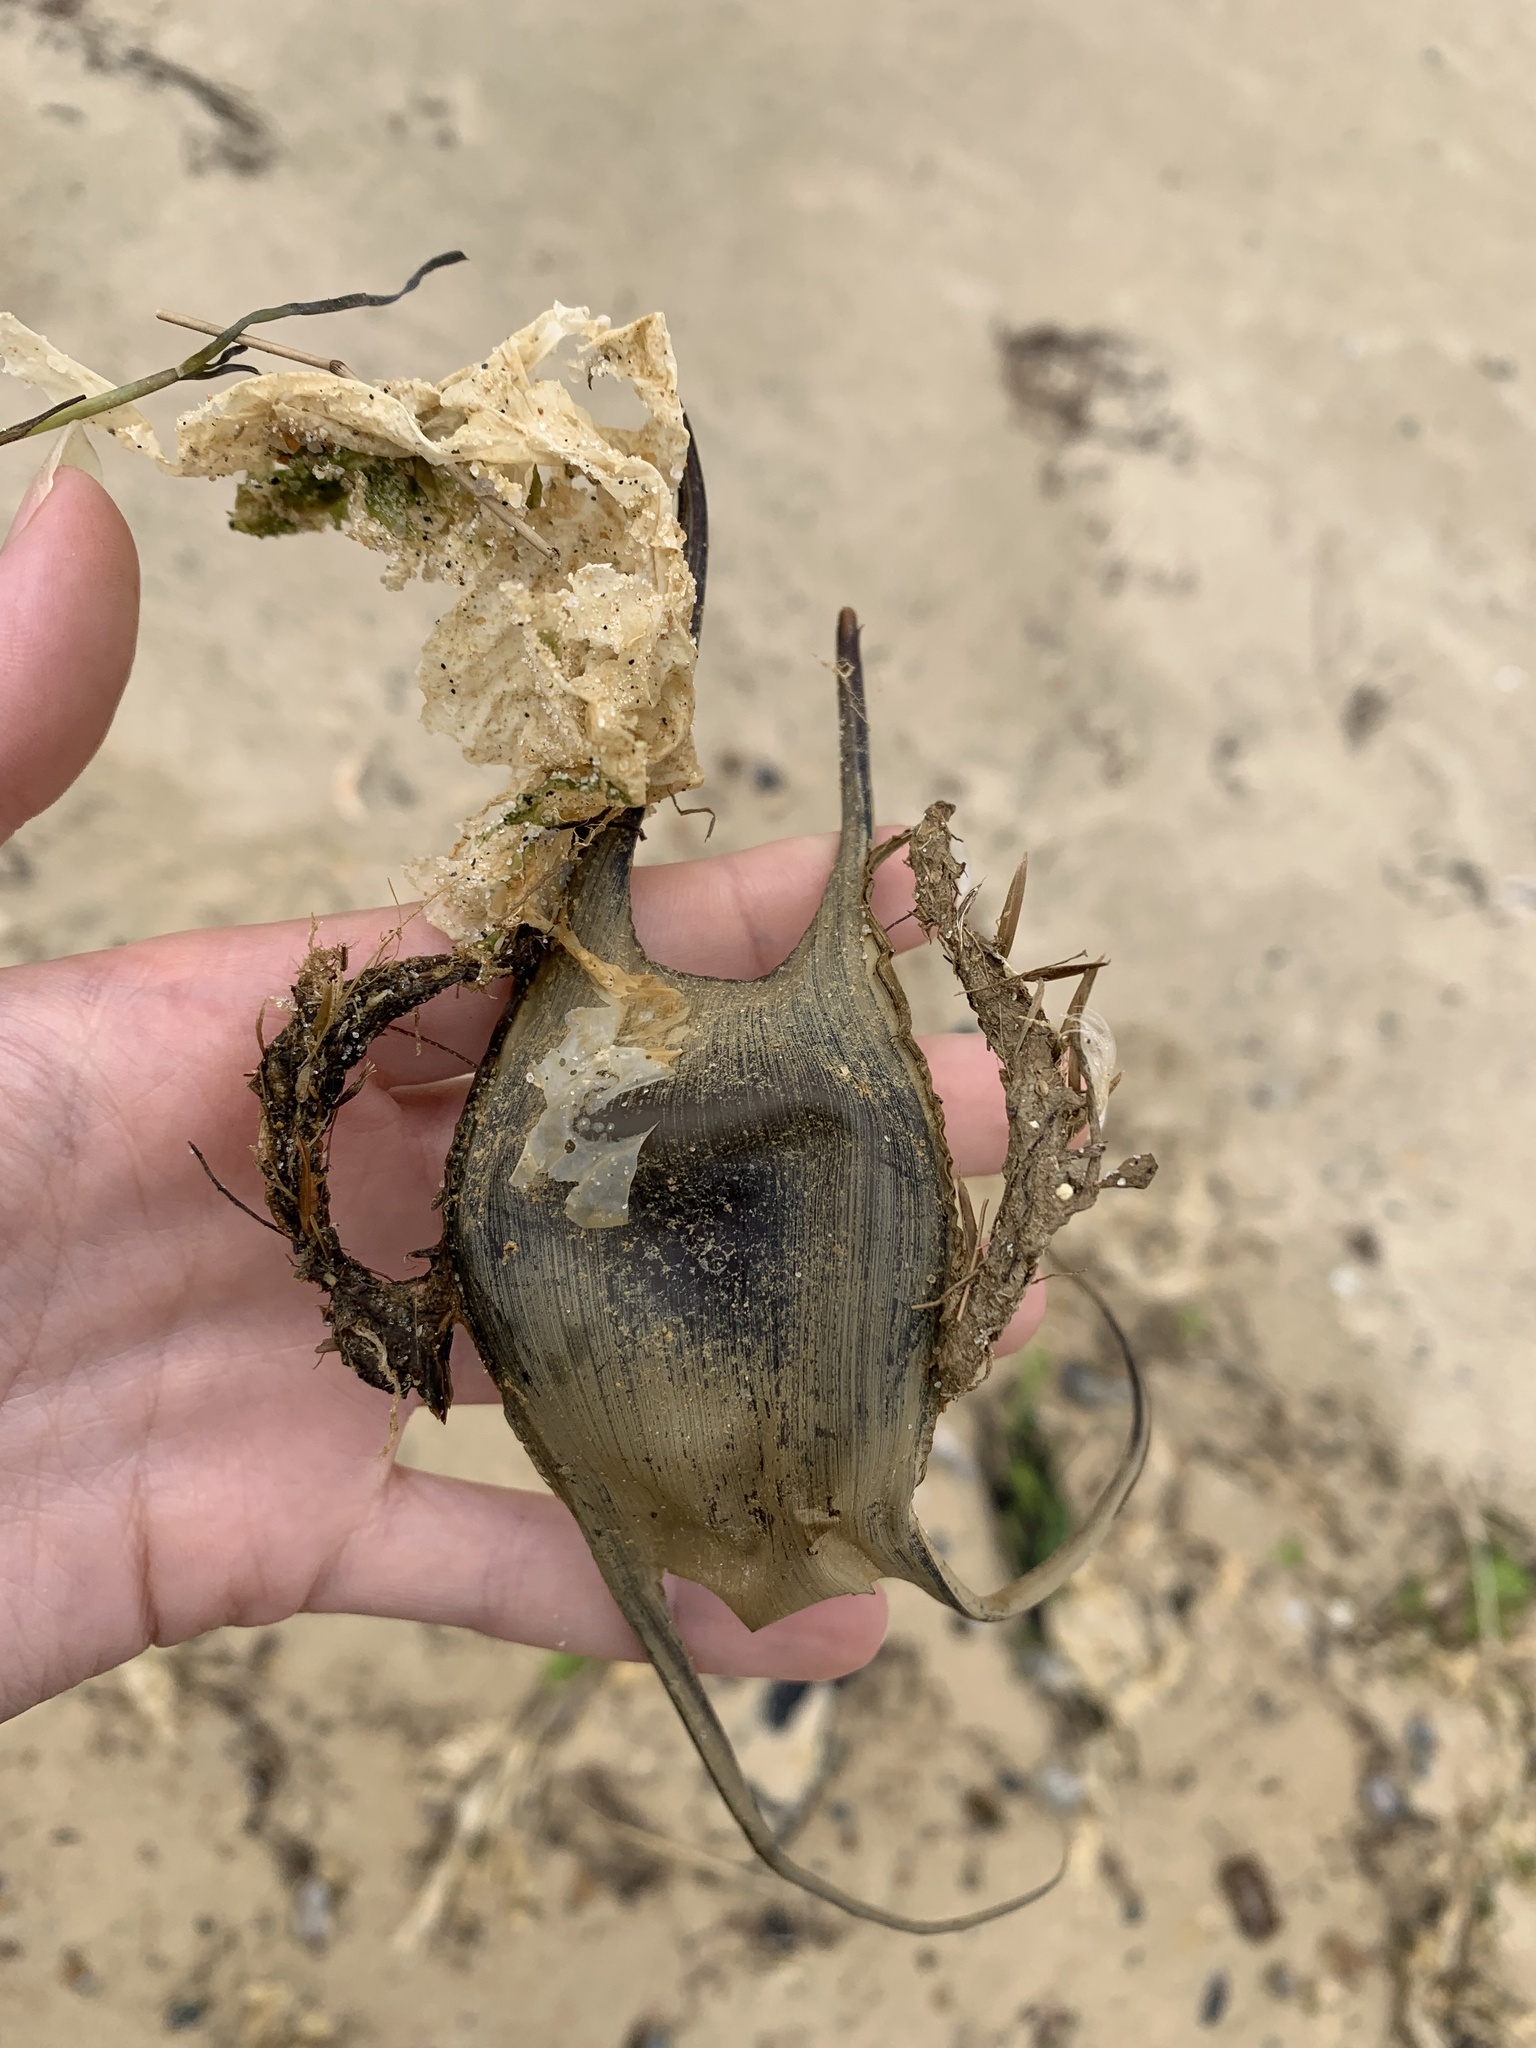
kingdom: Animalia
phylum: Chordata
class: Elasmobranchii
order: Rajiformes
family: Rajidae
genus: Leucoraja
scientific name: Leucoraja ocellata
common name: Winter skate
